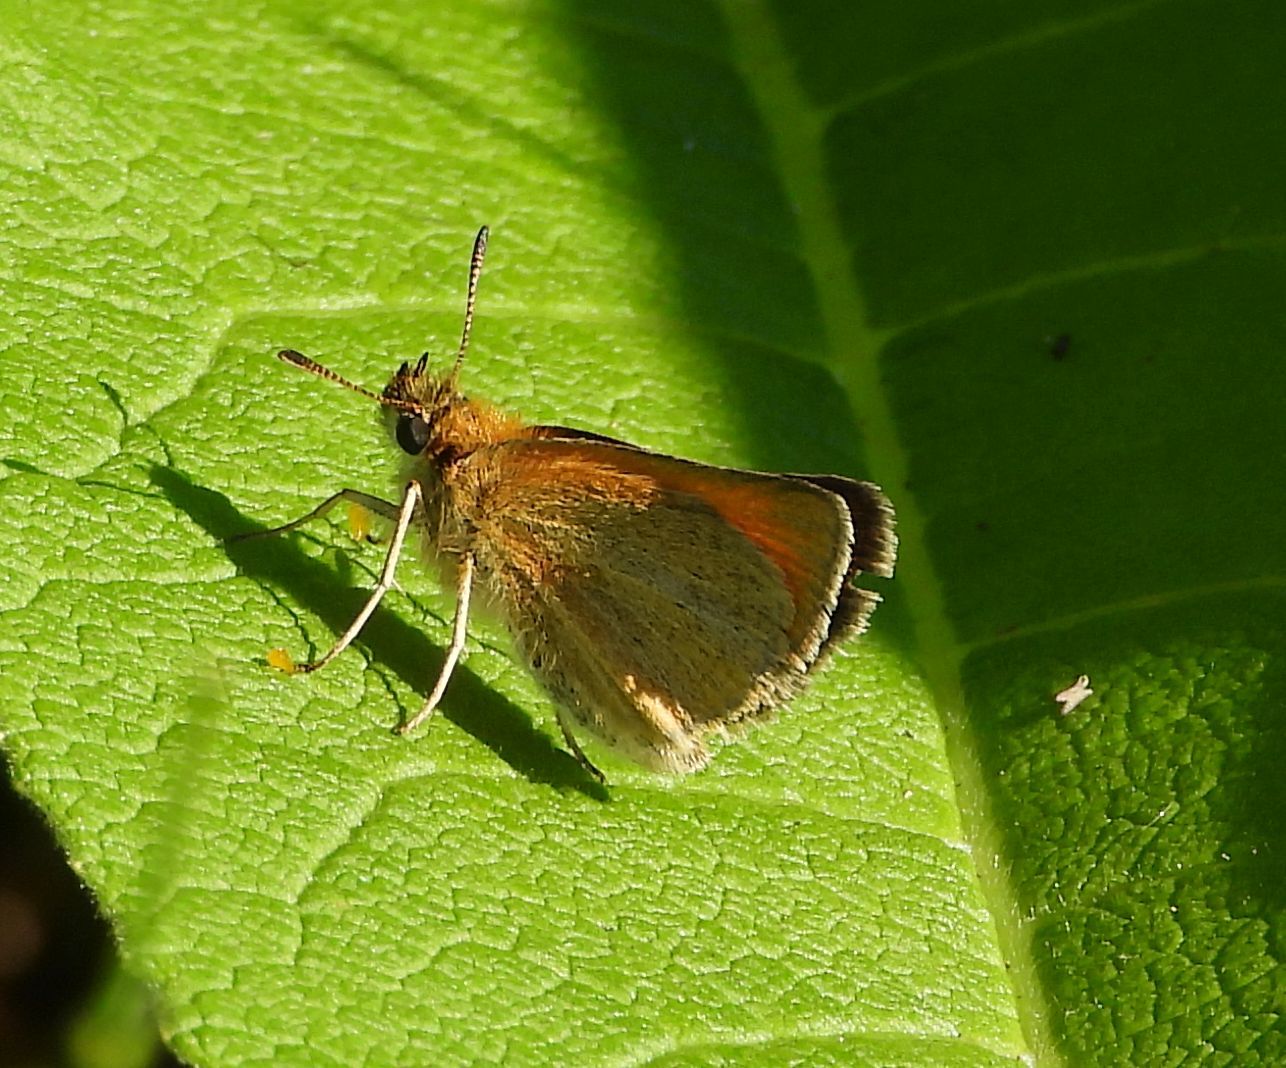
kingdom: Animalia
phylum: Arthropoda
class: Insecta
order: Lepidoptera
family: Hesperiidae
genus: Thymelicus
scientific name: Thymelicus lineola
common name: Essex skipper
